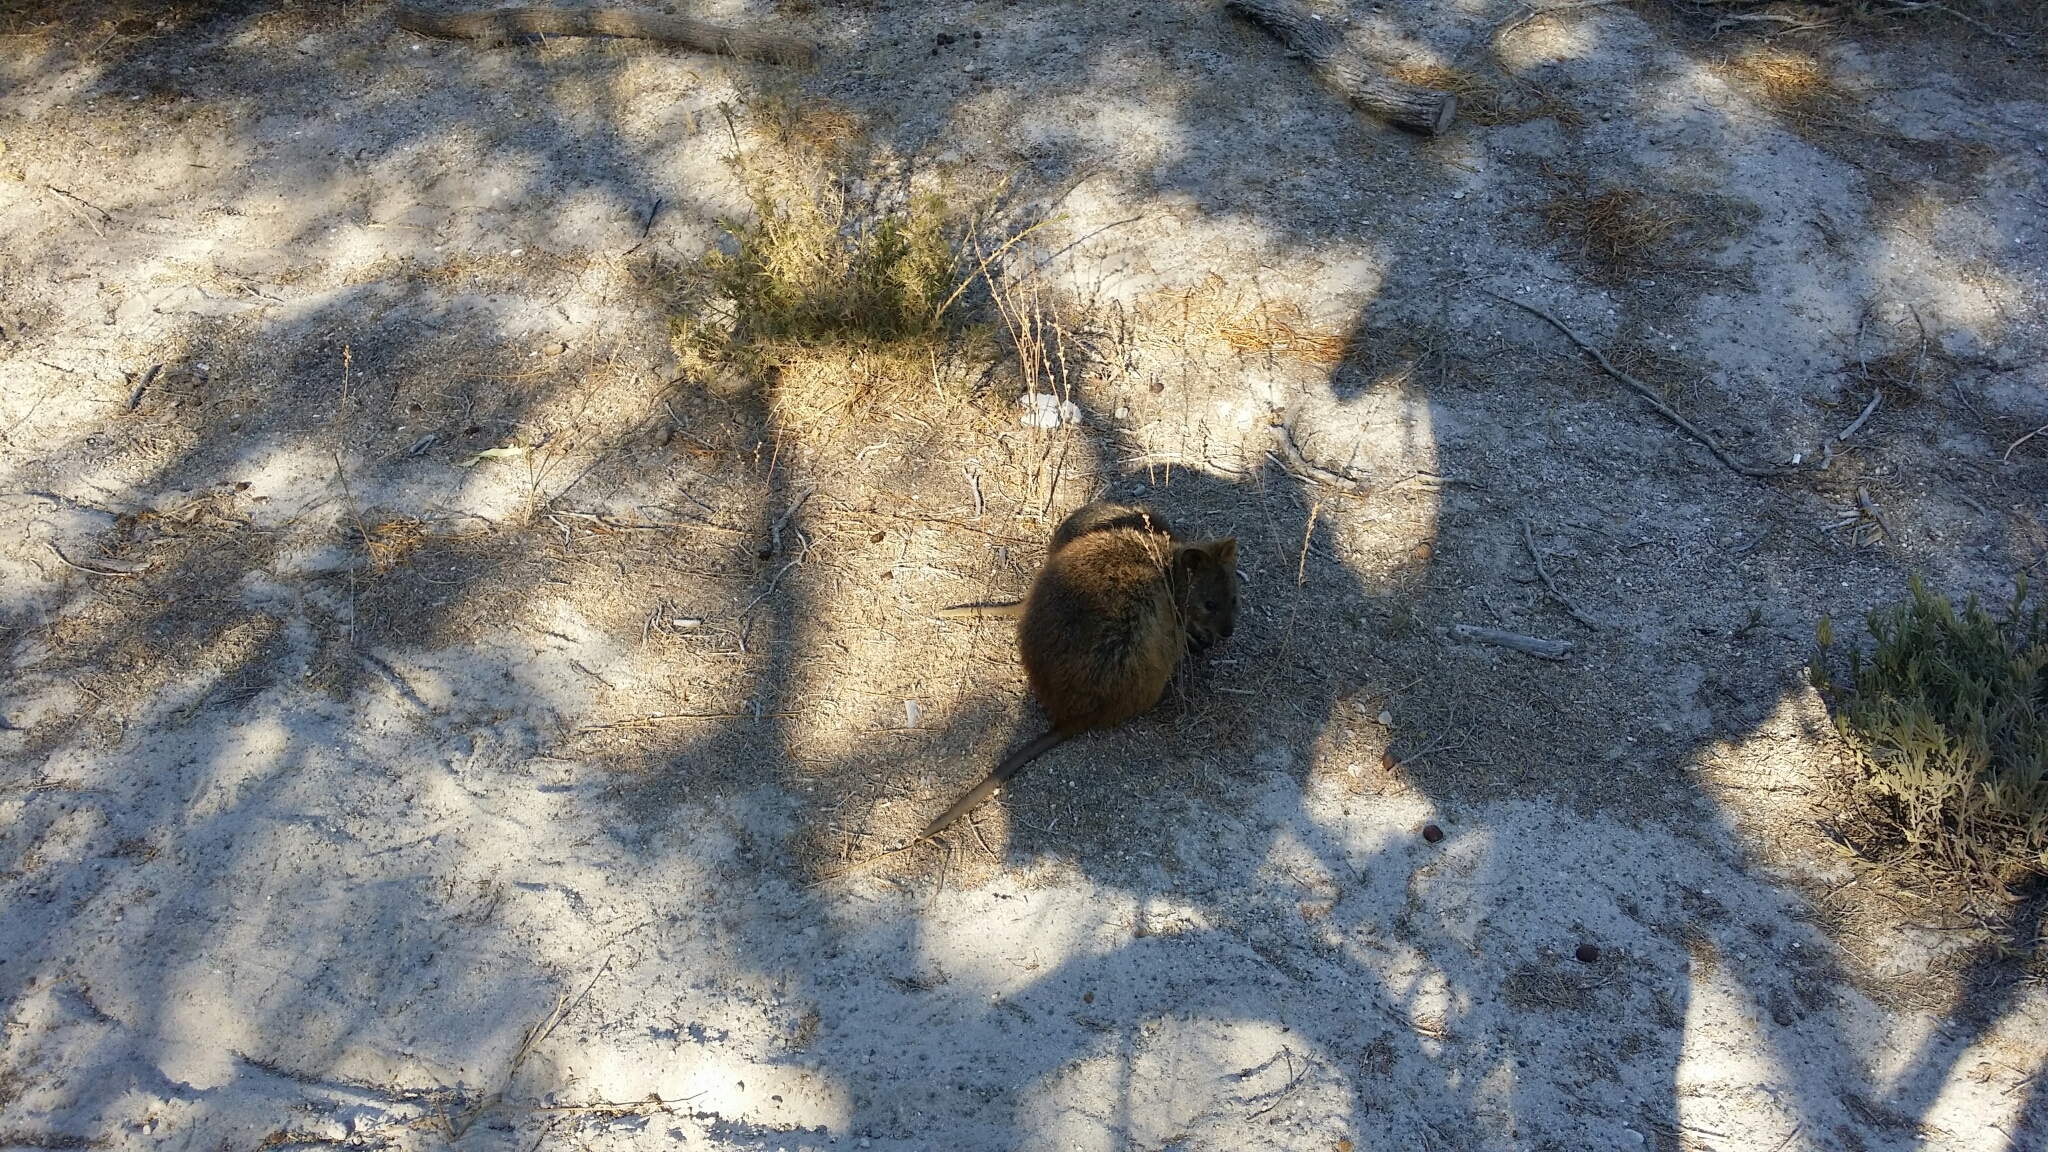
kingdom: Animalia
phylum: Chordata
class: Mammalia
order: Diprotodontia
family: Macropodidae
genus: Setonix
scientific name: Setonix brachyurus
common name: Quokka
